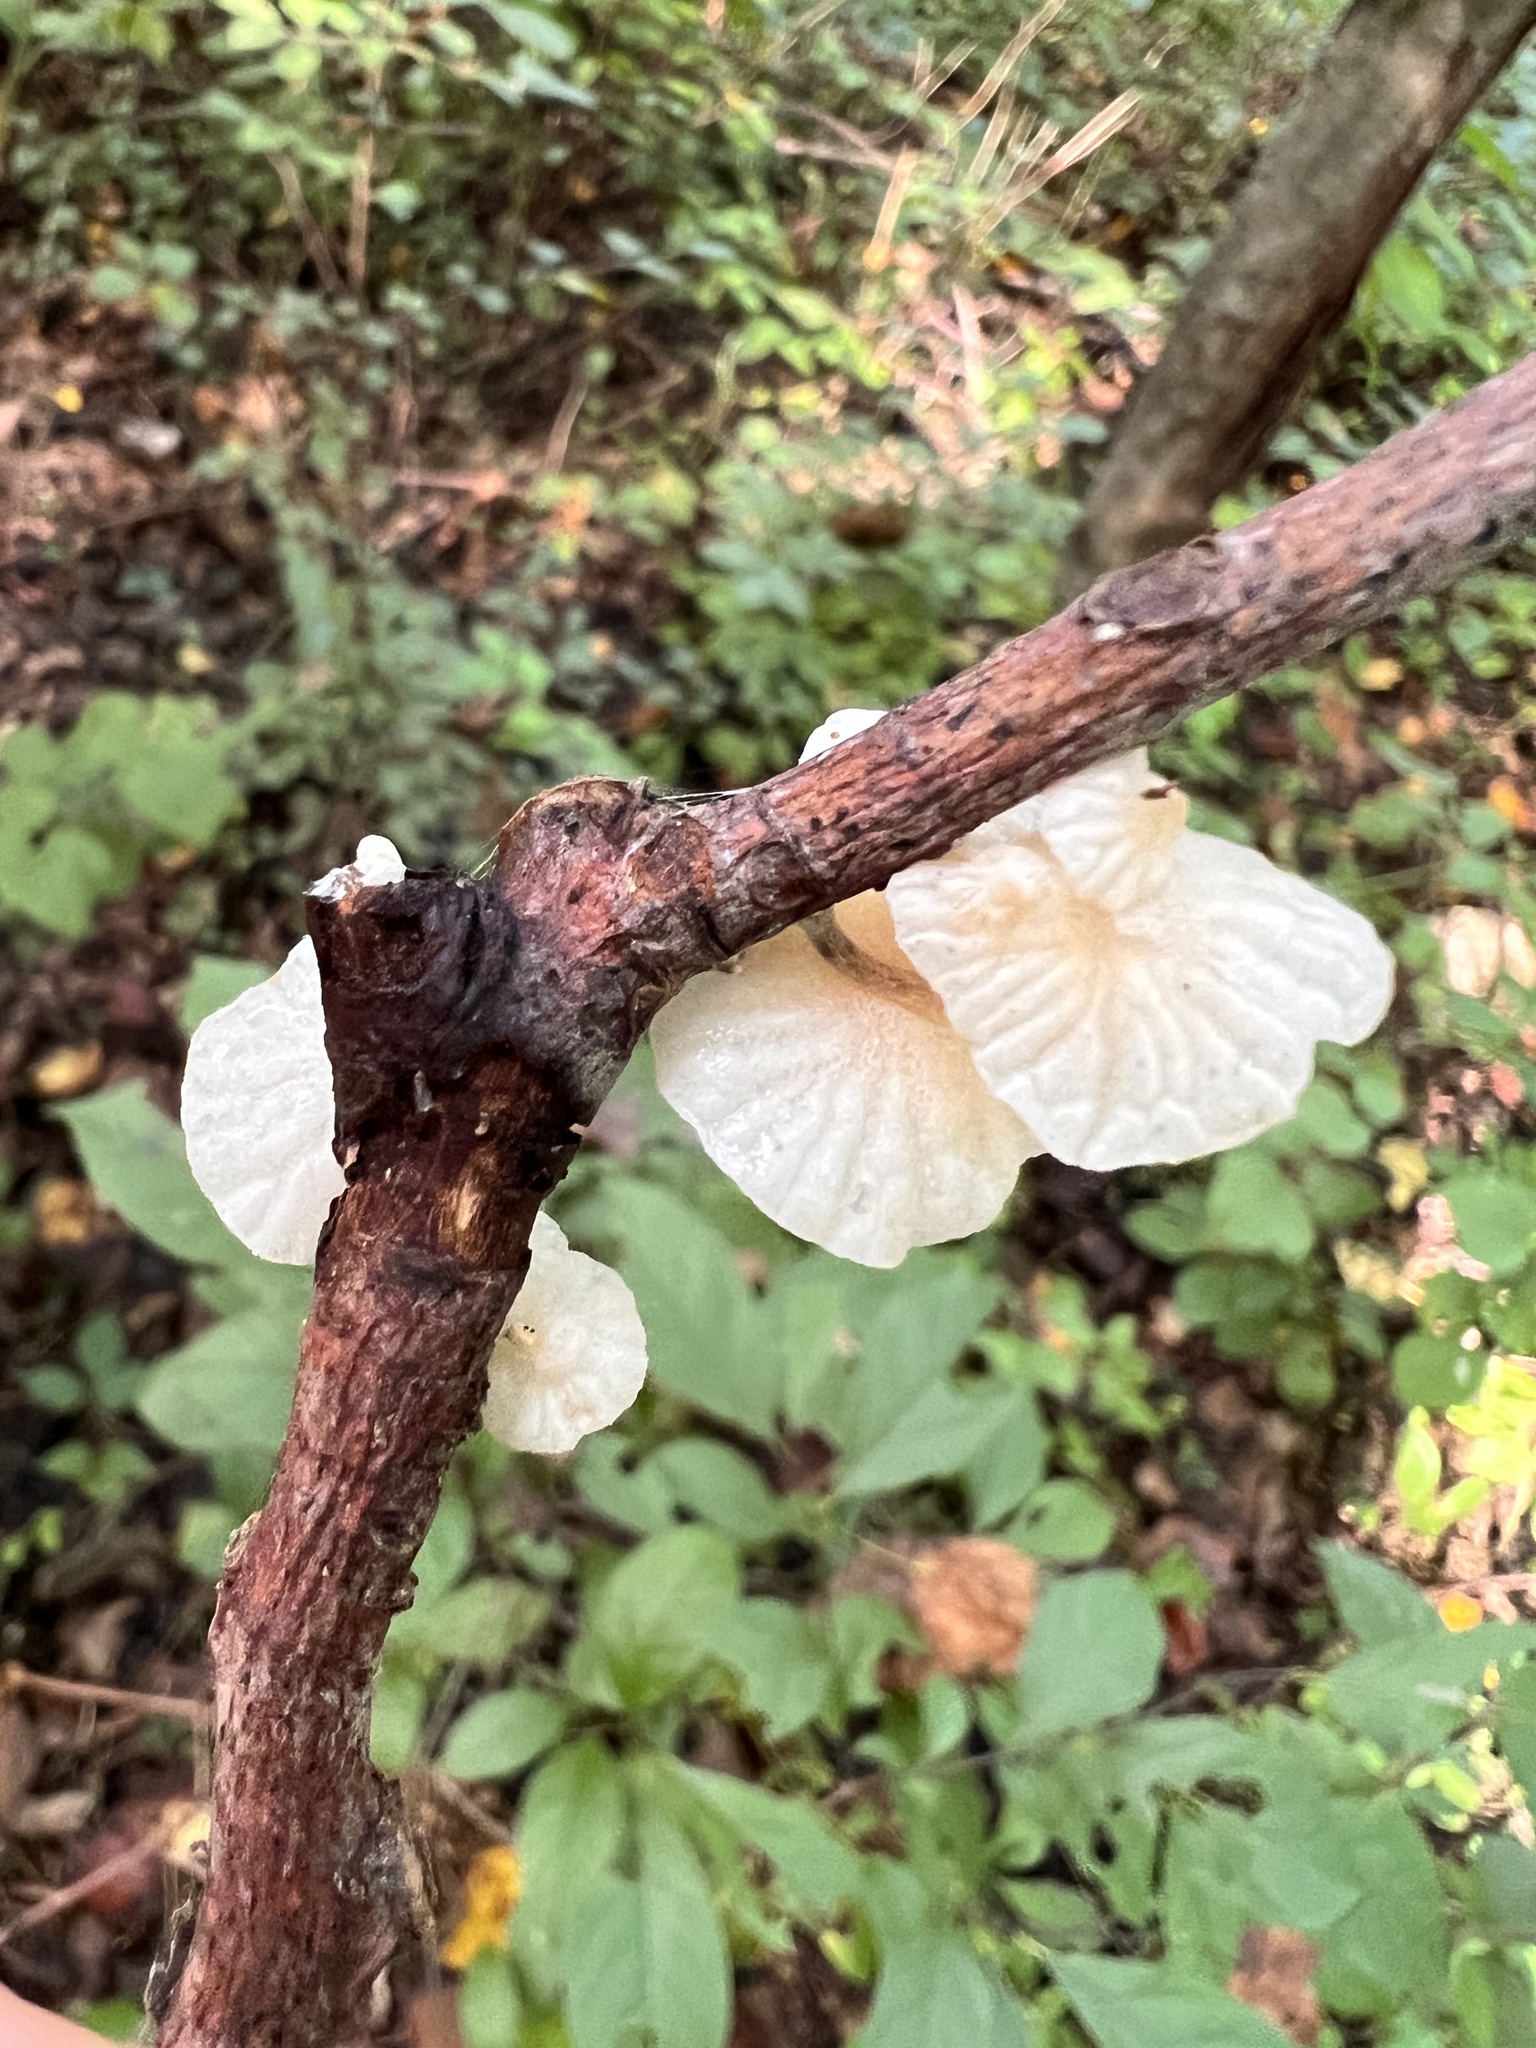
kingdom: Fungi
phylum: Basidiomycota
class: Agaricomycetes
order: Agaricales
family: Omphalotaceae
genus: Marasmiellus
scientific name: Marasmiellus candidus
